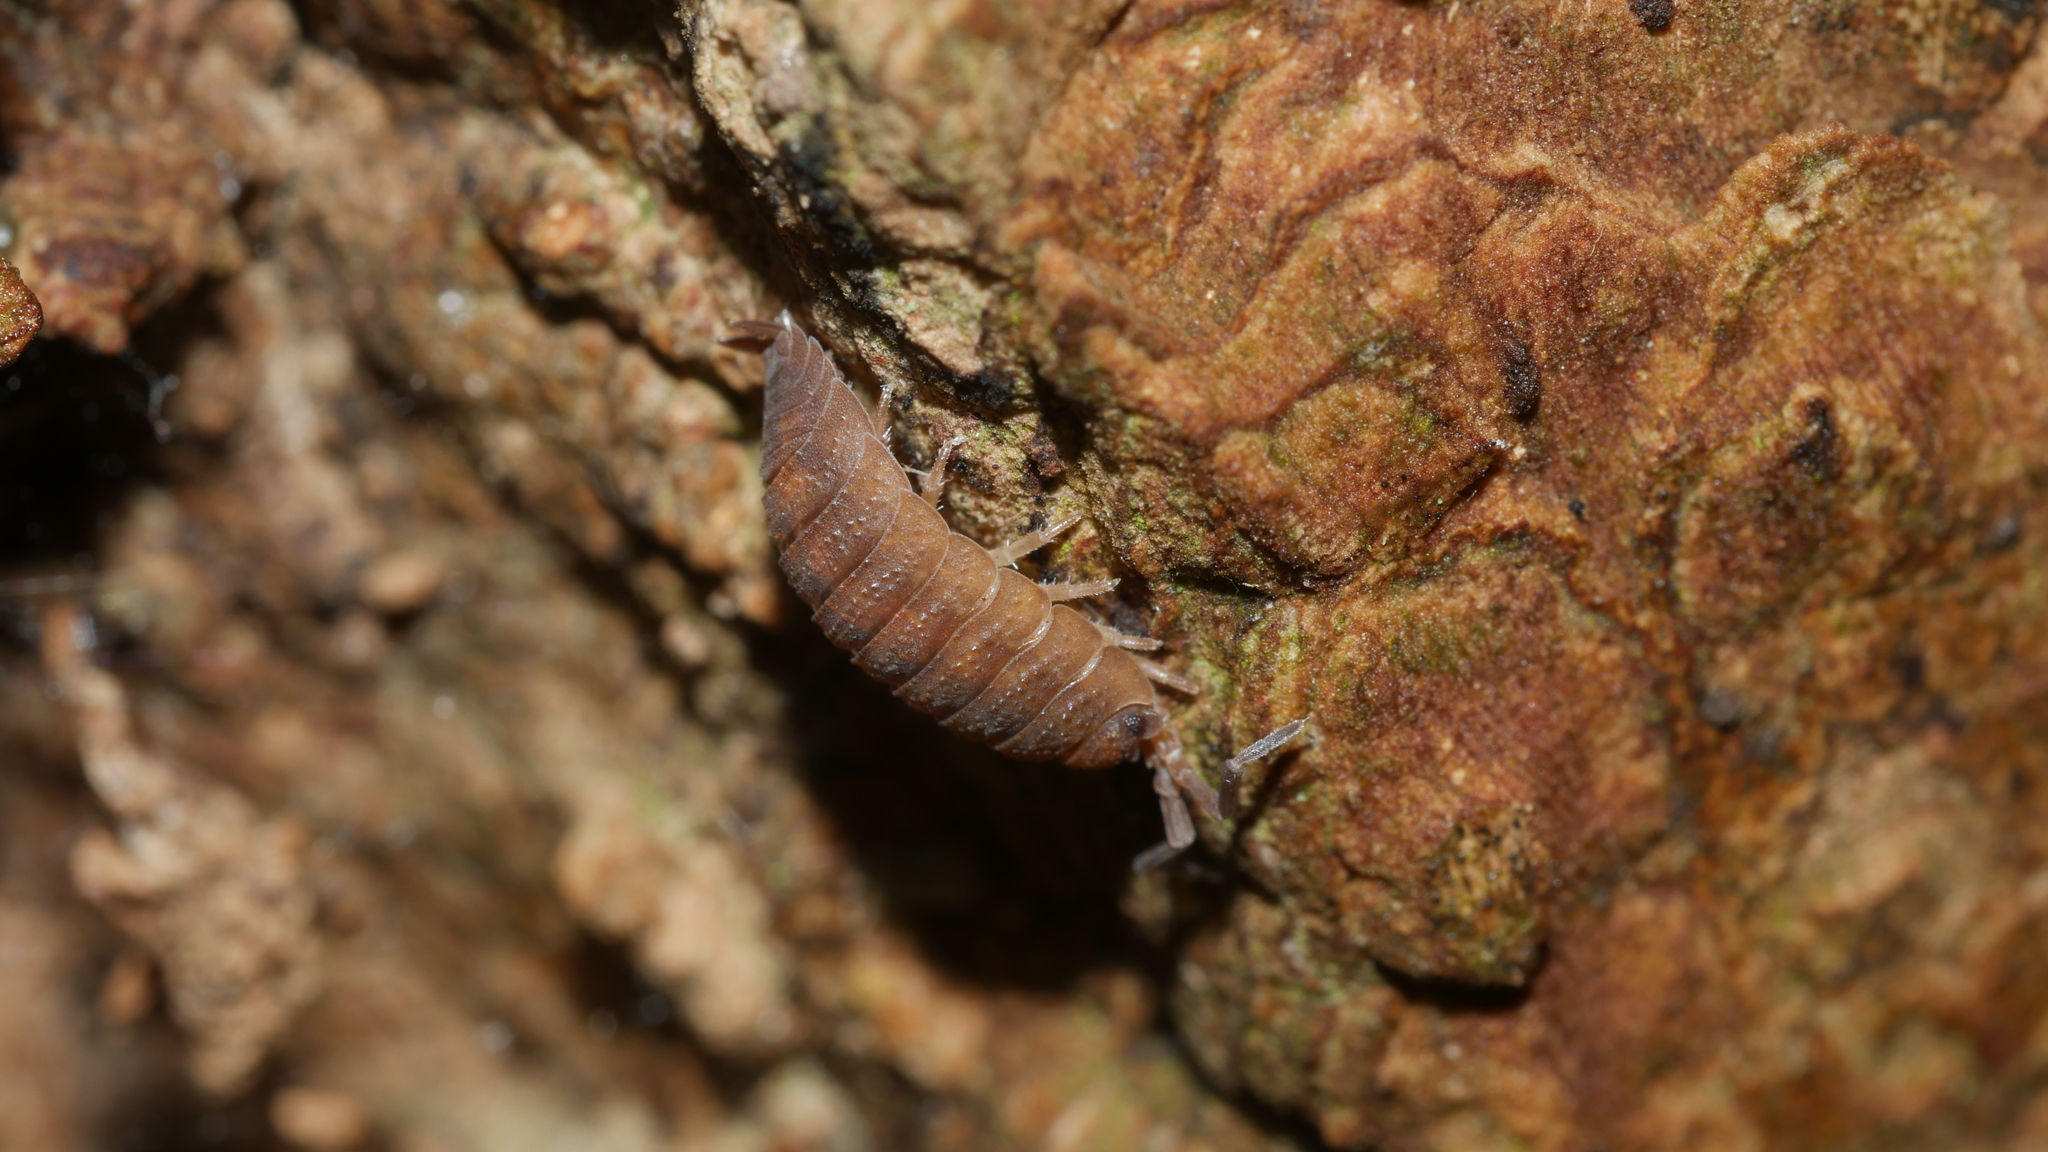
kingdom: Animalia
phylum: Arthropoda
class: Malacostraca
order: Isopoda
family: Porcellionidae
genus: Porcellio
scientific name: Porcellio scaber
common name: Common rough woodlouse
